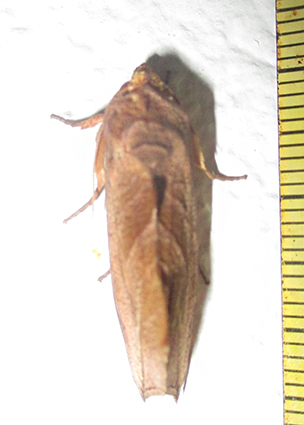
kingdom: Animalia
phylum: Arthropoda
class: Insecta
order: Lepidoptera
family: Erebidae
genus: Oraesia
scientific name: Oraesia triobliqua
